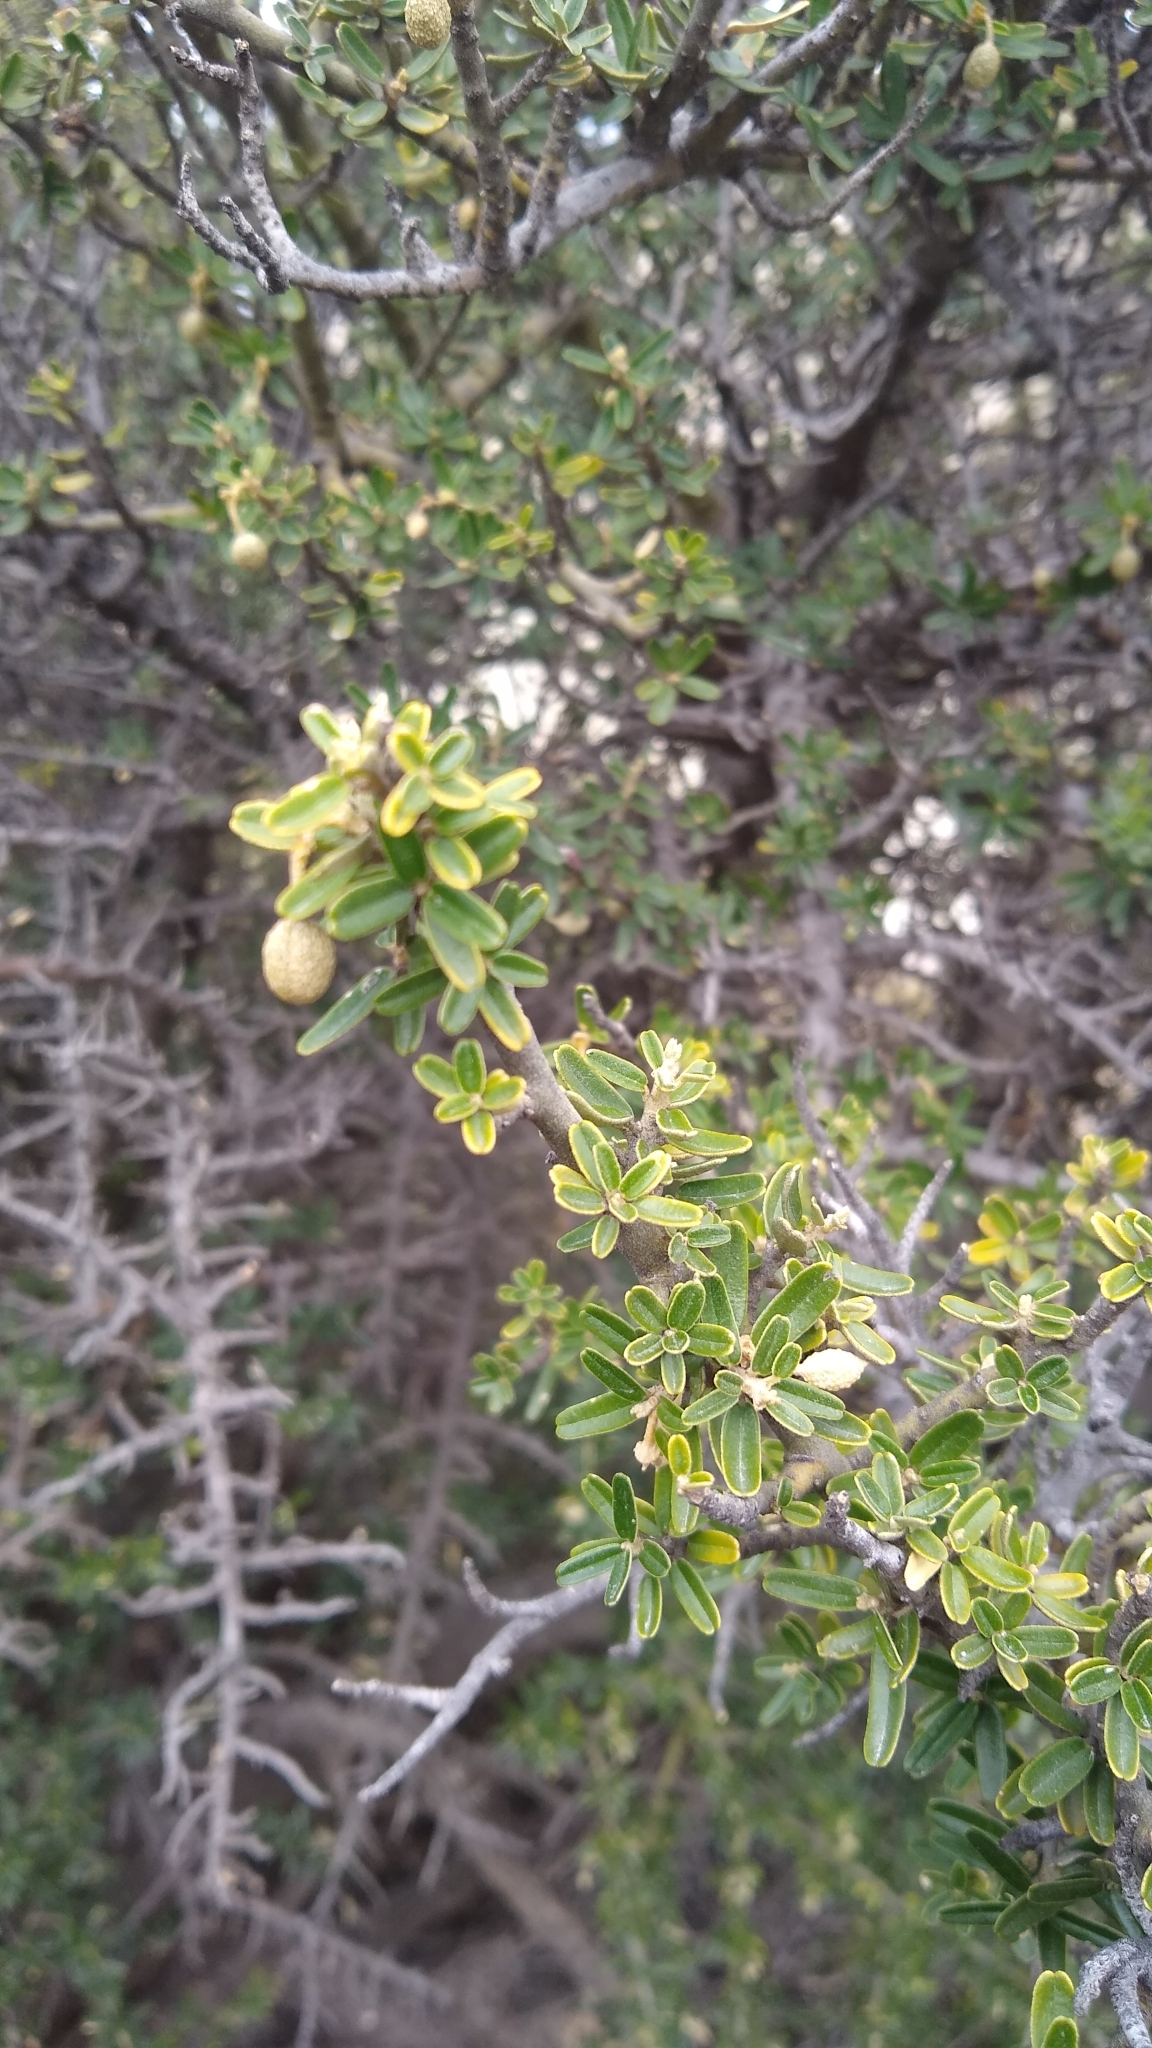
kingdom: Plantae
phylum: Tracheophyta
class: Magnoliopsida
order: Brassicales
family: Capparaceae
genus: Atamisquea
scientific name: Atamisquea emarginata
